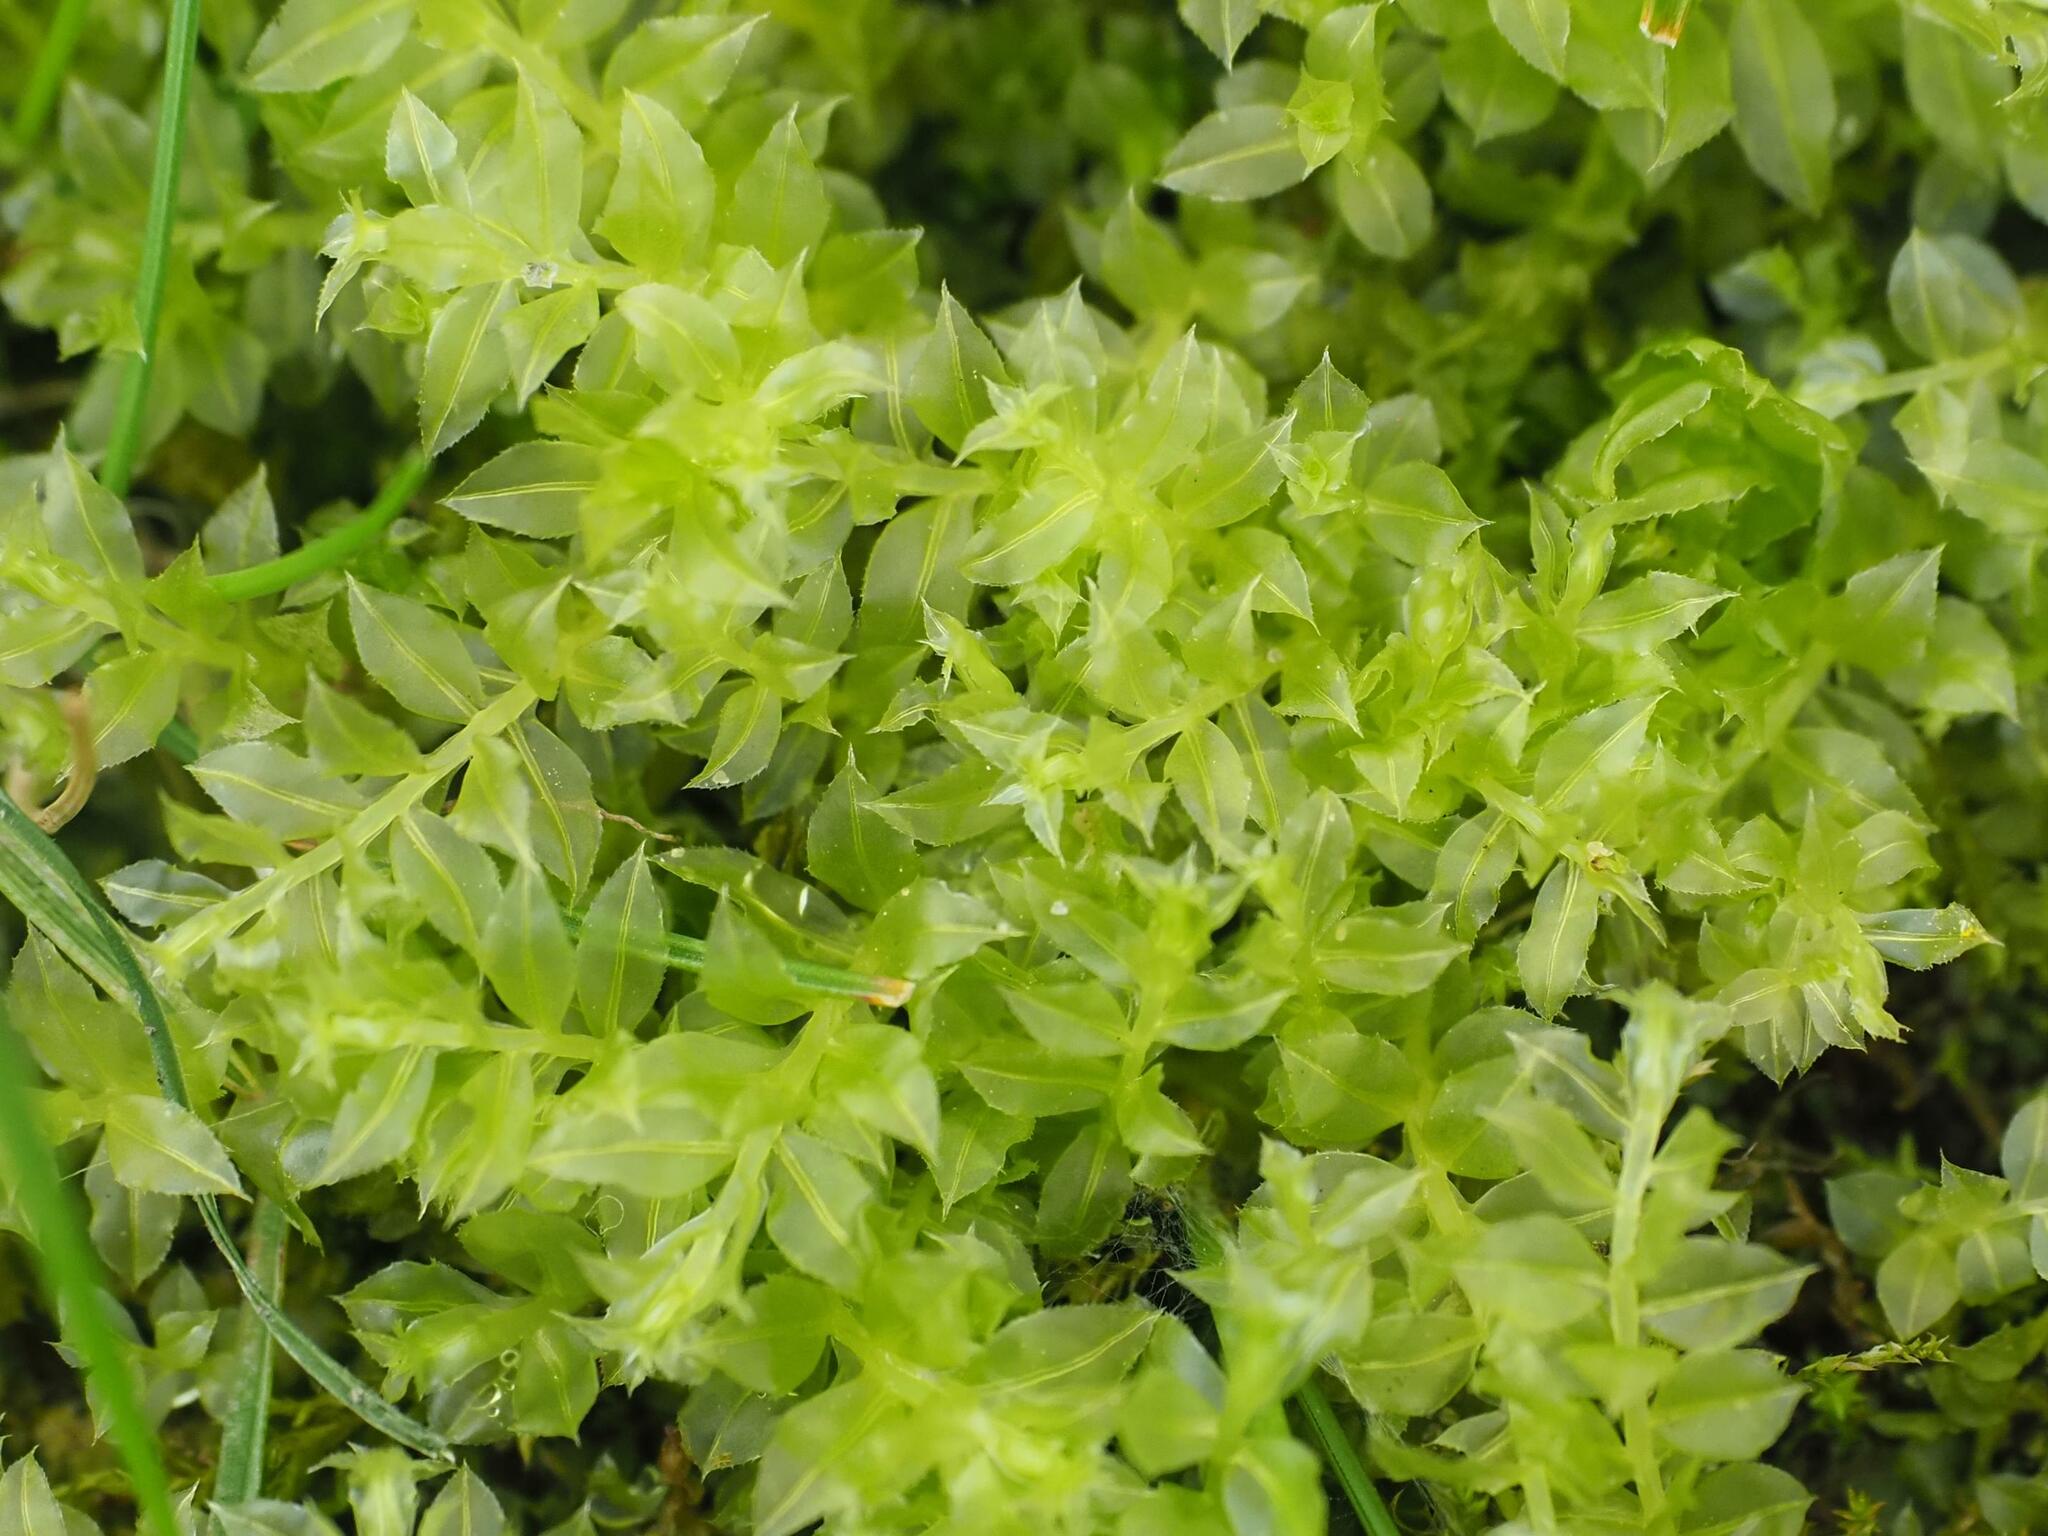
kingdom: Plantae
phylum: Bryophyta
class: Bryopsida
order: Bryales
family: Mniaceae
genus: Plagiomnium
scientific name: Plagiomnium cuspidatum
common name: Woodsy leafy moss
